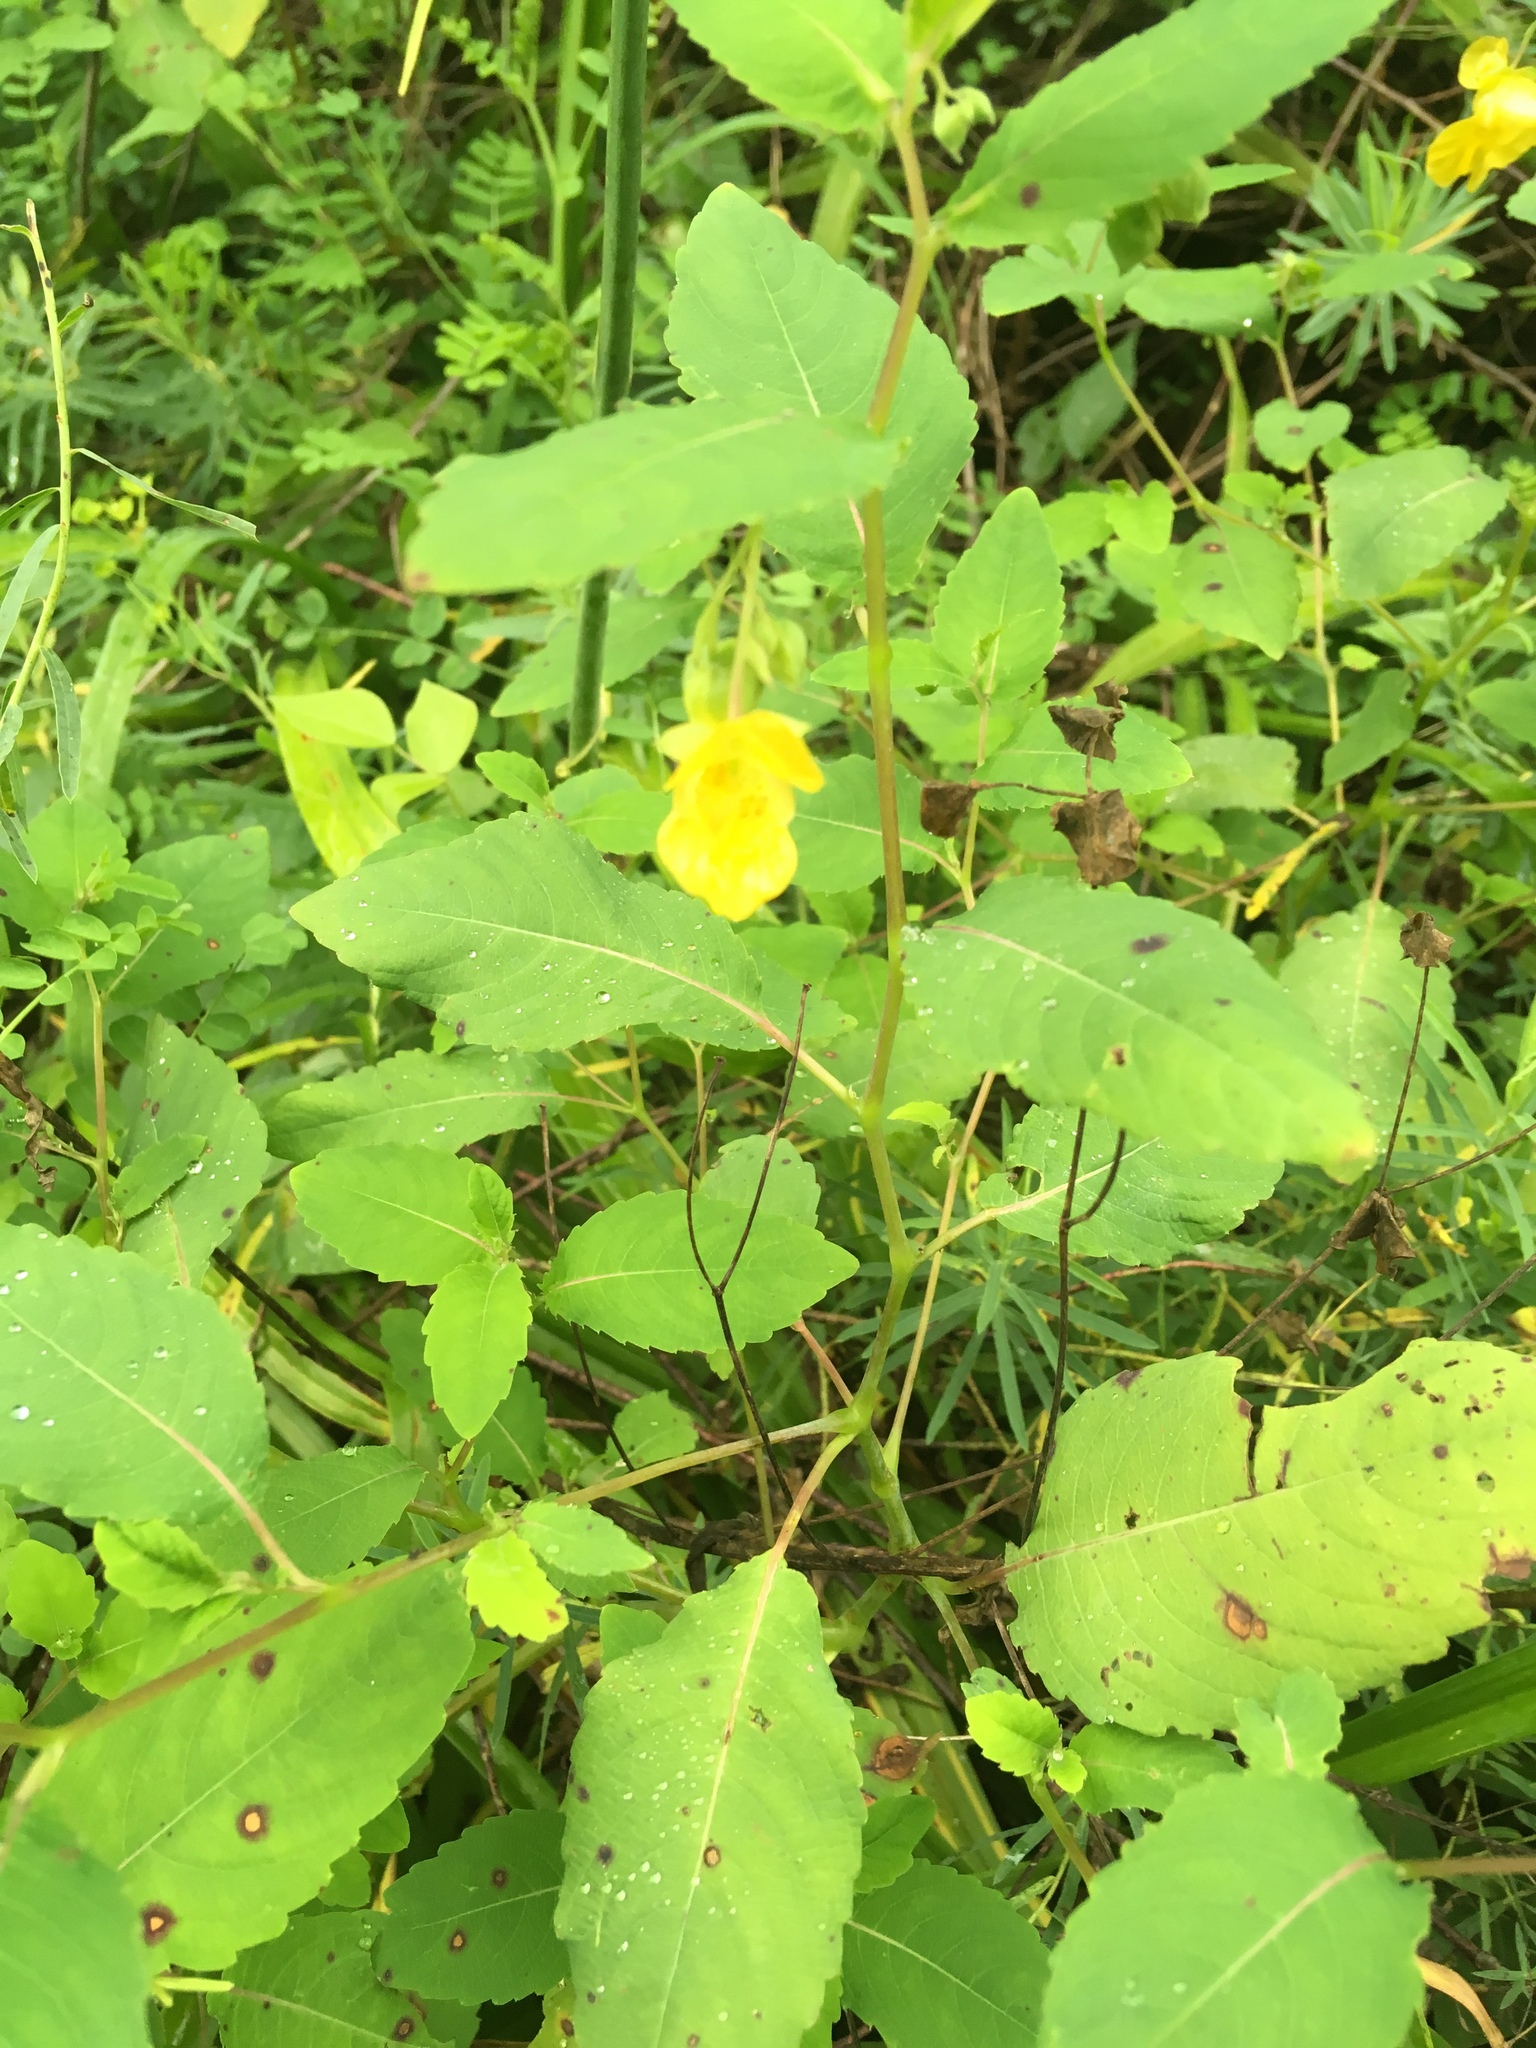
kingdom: Plantae
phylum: Tracheophyta
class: Magnoliopsida
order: Ericales
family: Balsaminaceae
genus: Impatiens
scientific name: Impatiens pallida
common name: Pale snapweed
